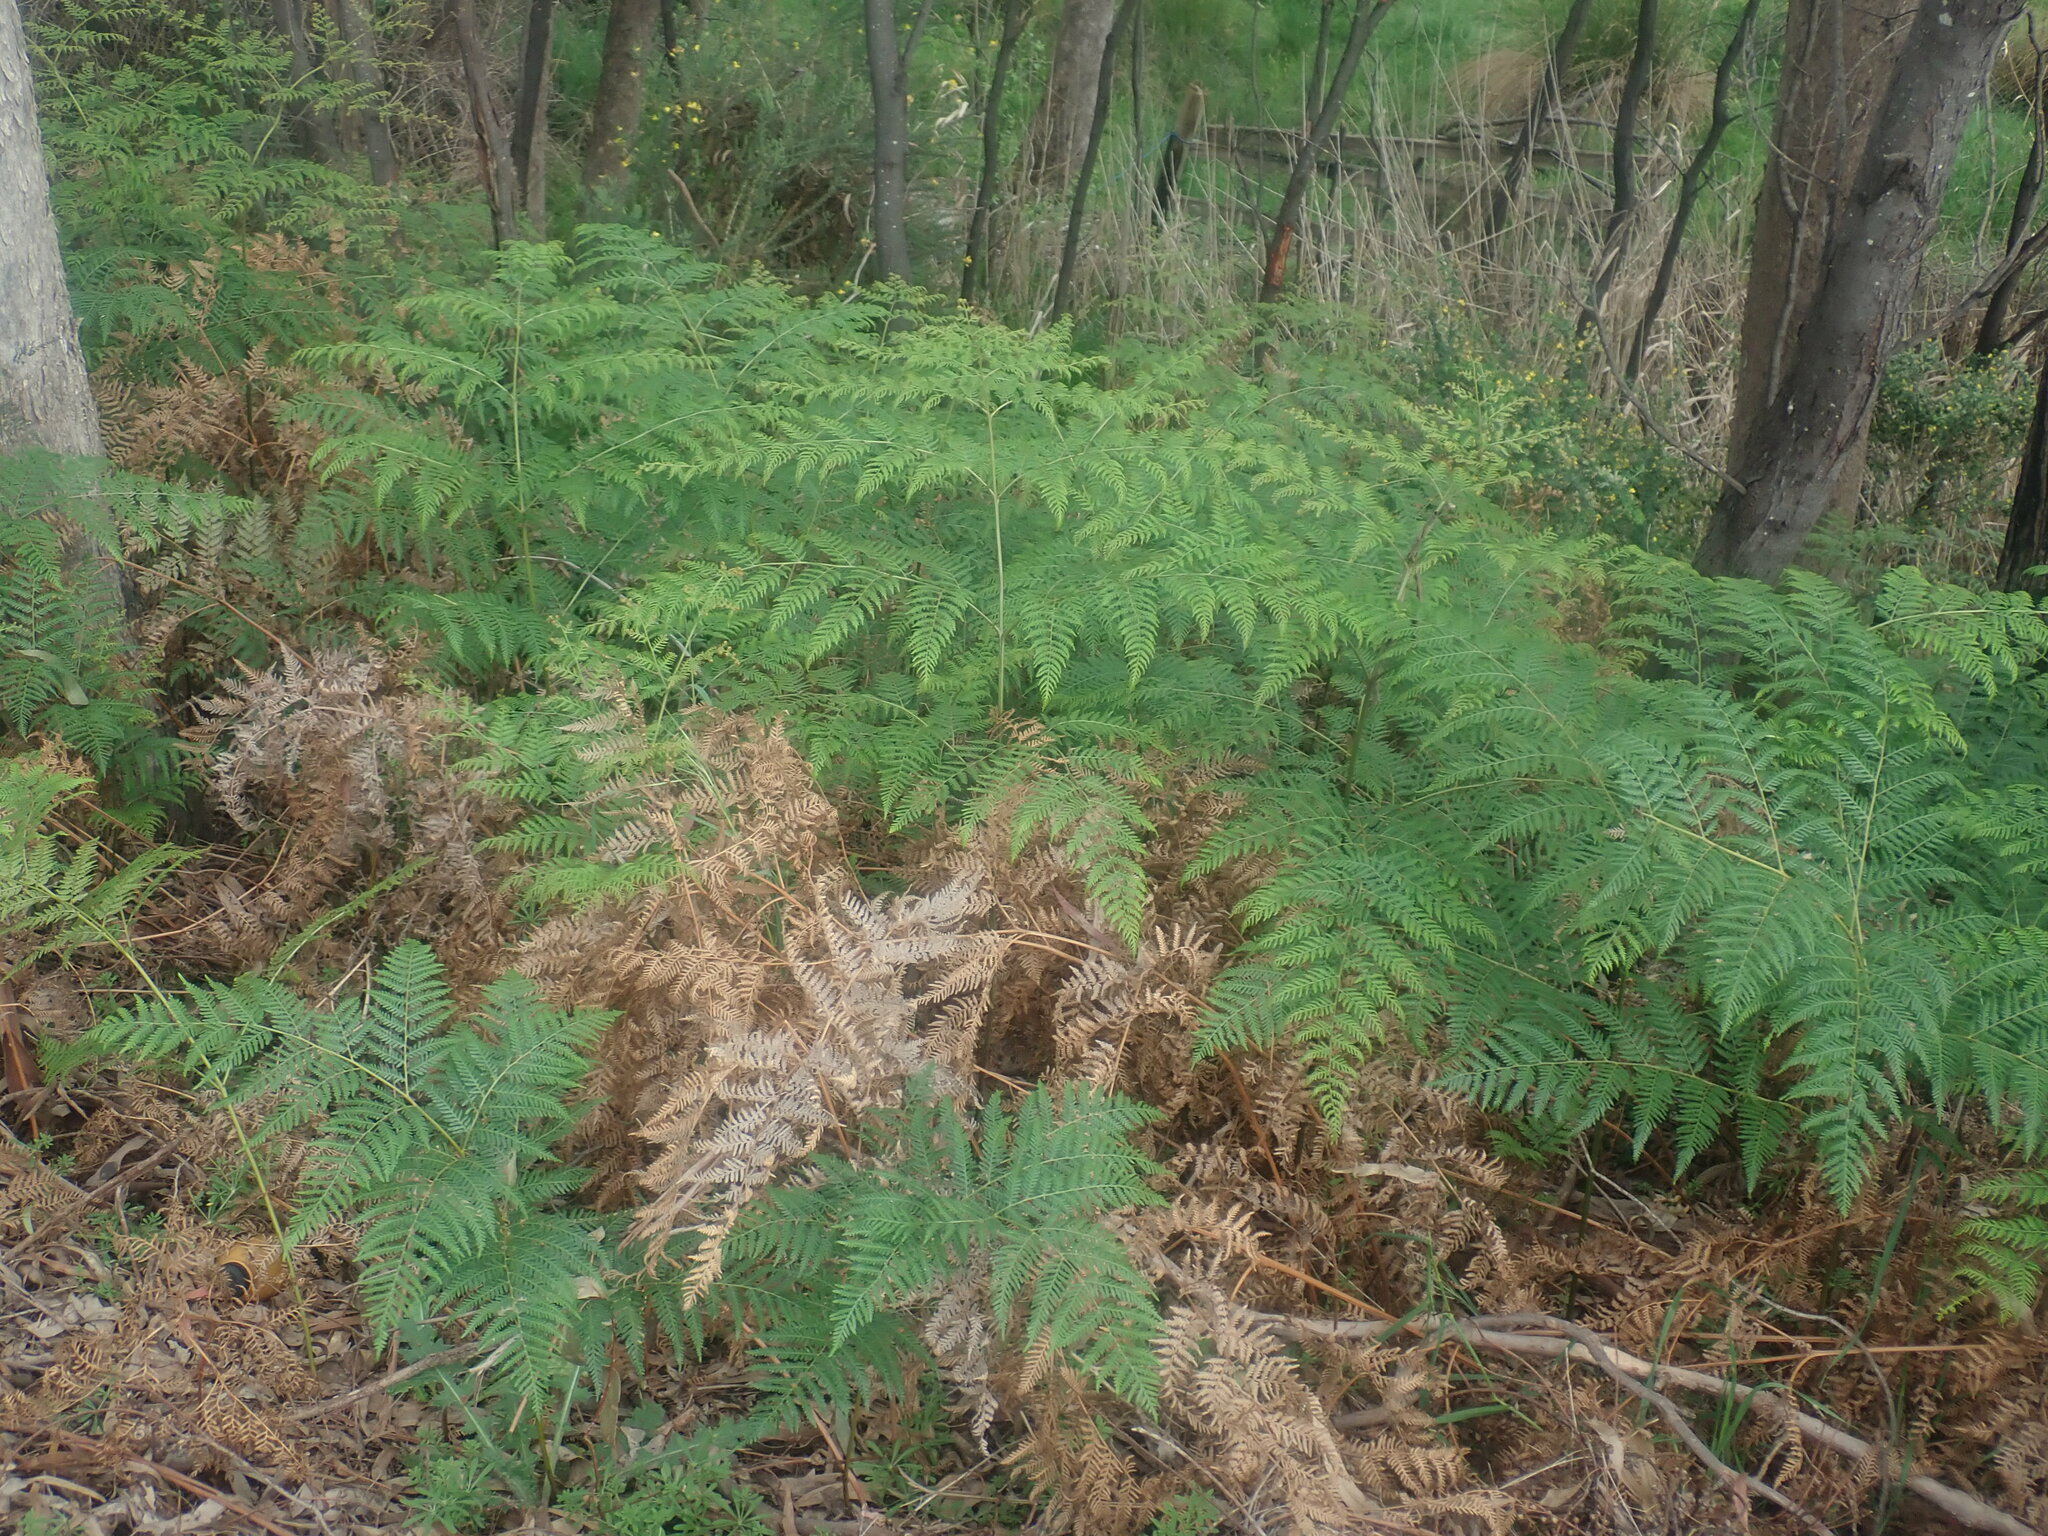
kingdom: Plantae
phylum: Tracheophyta
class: Polypodiopsida
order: Polypodiales
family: Dennstaedtiaceae
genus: Pteridium
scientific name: Pteridium esculentum
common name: Bracken fern
